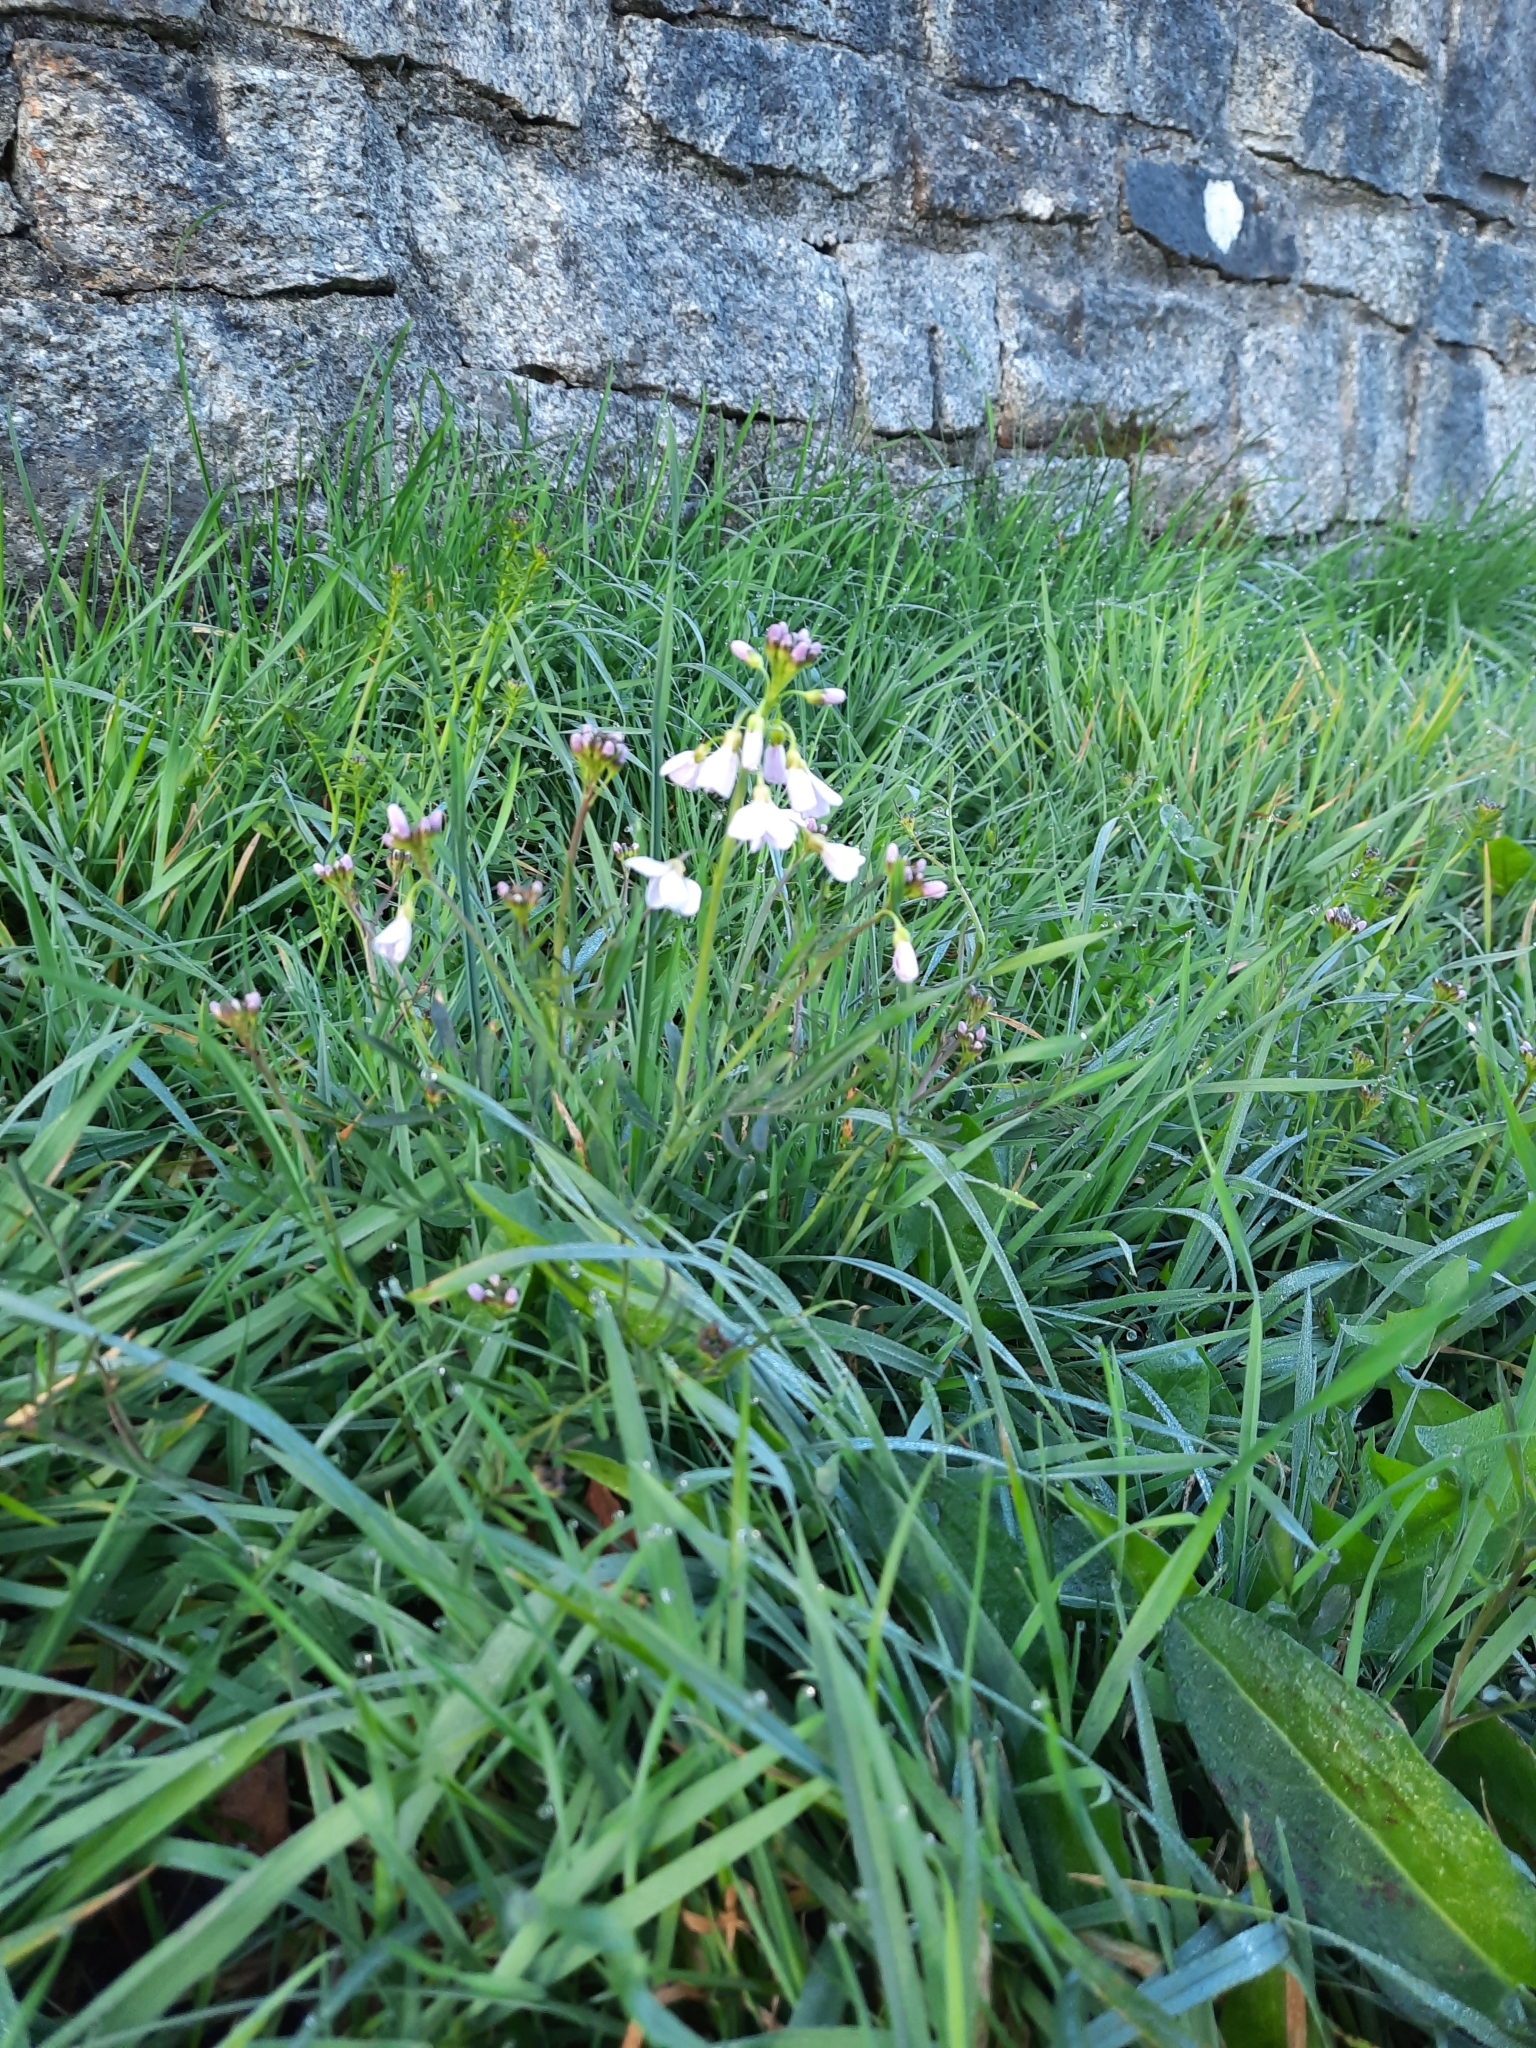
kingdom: Plantae
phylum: Tracheophyta
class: Magnoliopsida
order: Brassicales
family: Brassicaceae
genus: Cardamine
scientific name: Cardamine pratensis
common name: Cuckoo flower
